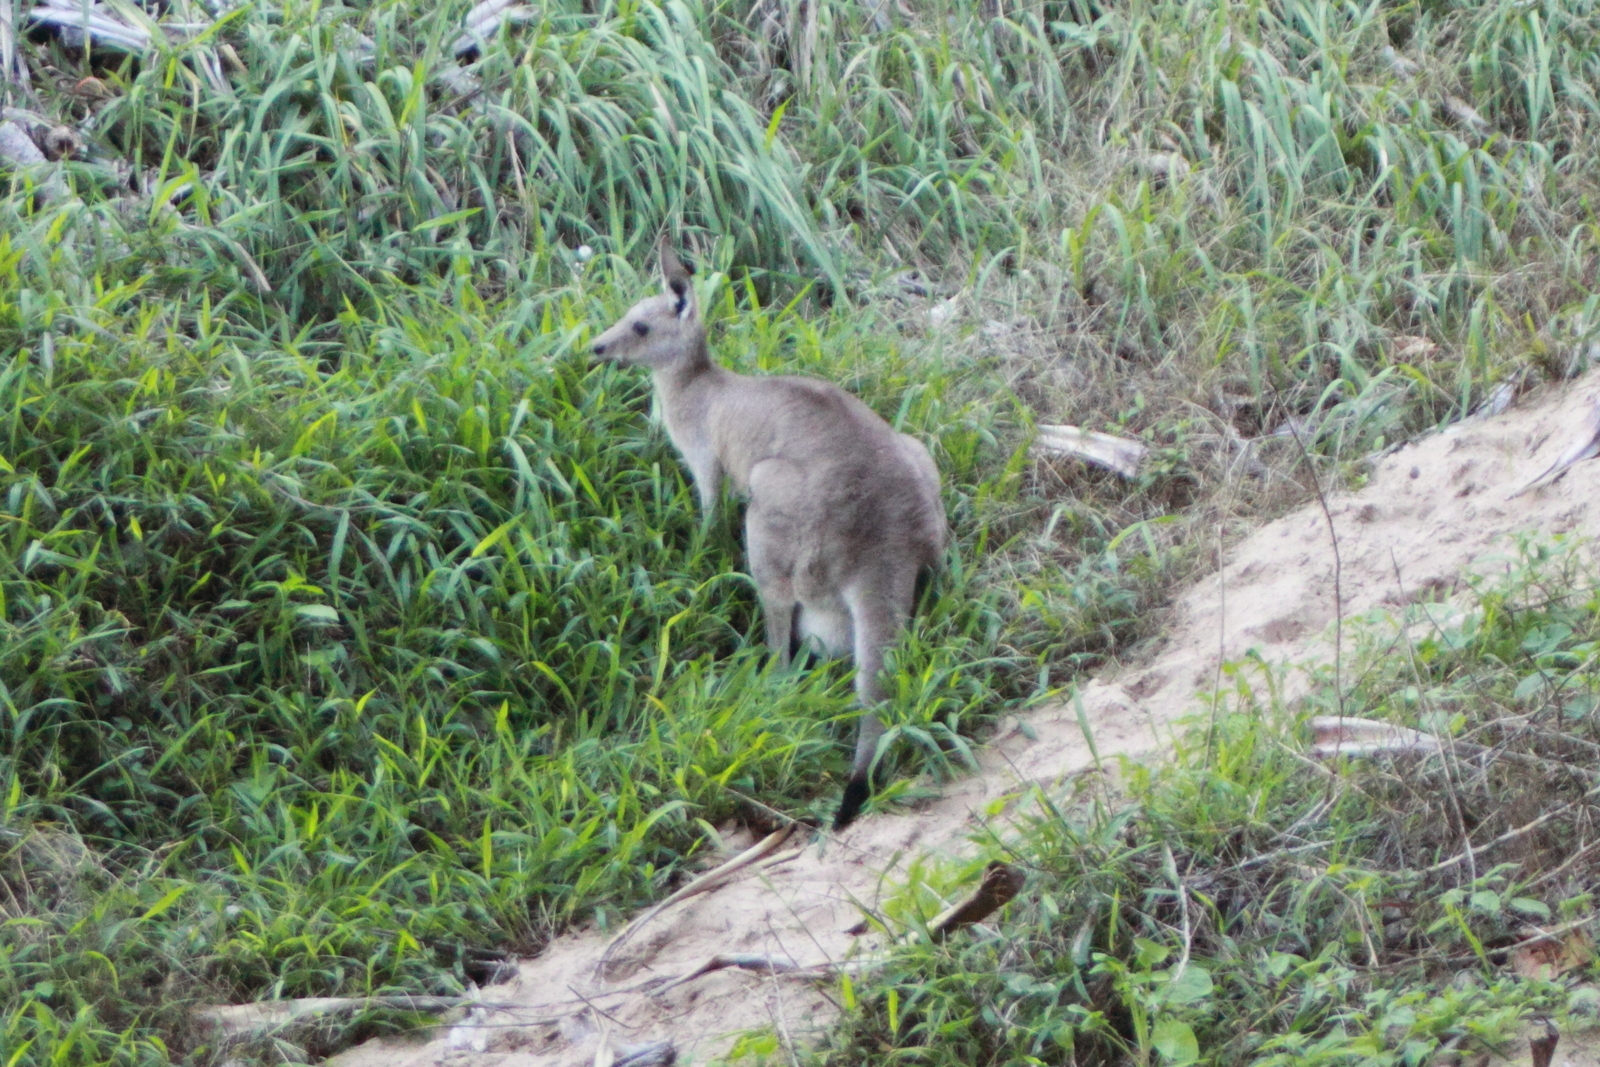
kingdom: Animalia
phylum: Chordata
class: Mammalia
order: Diprotodontia
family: Macropodidae
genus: Macropus
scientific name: Macropus giganteus
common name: Eastern grey kangaroo
